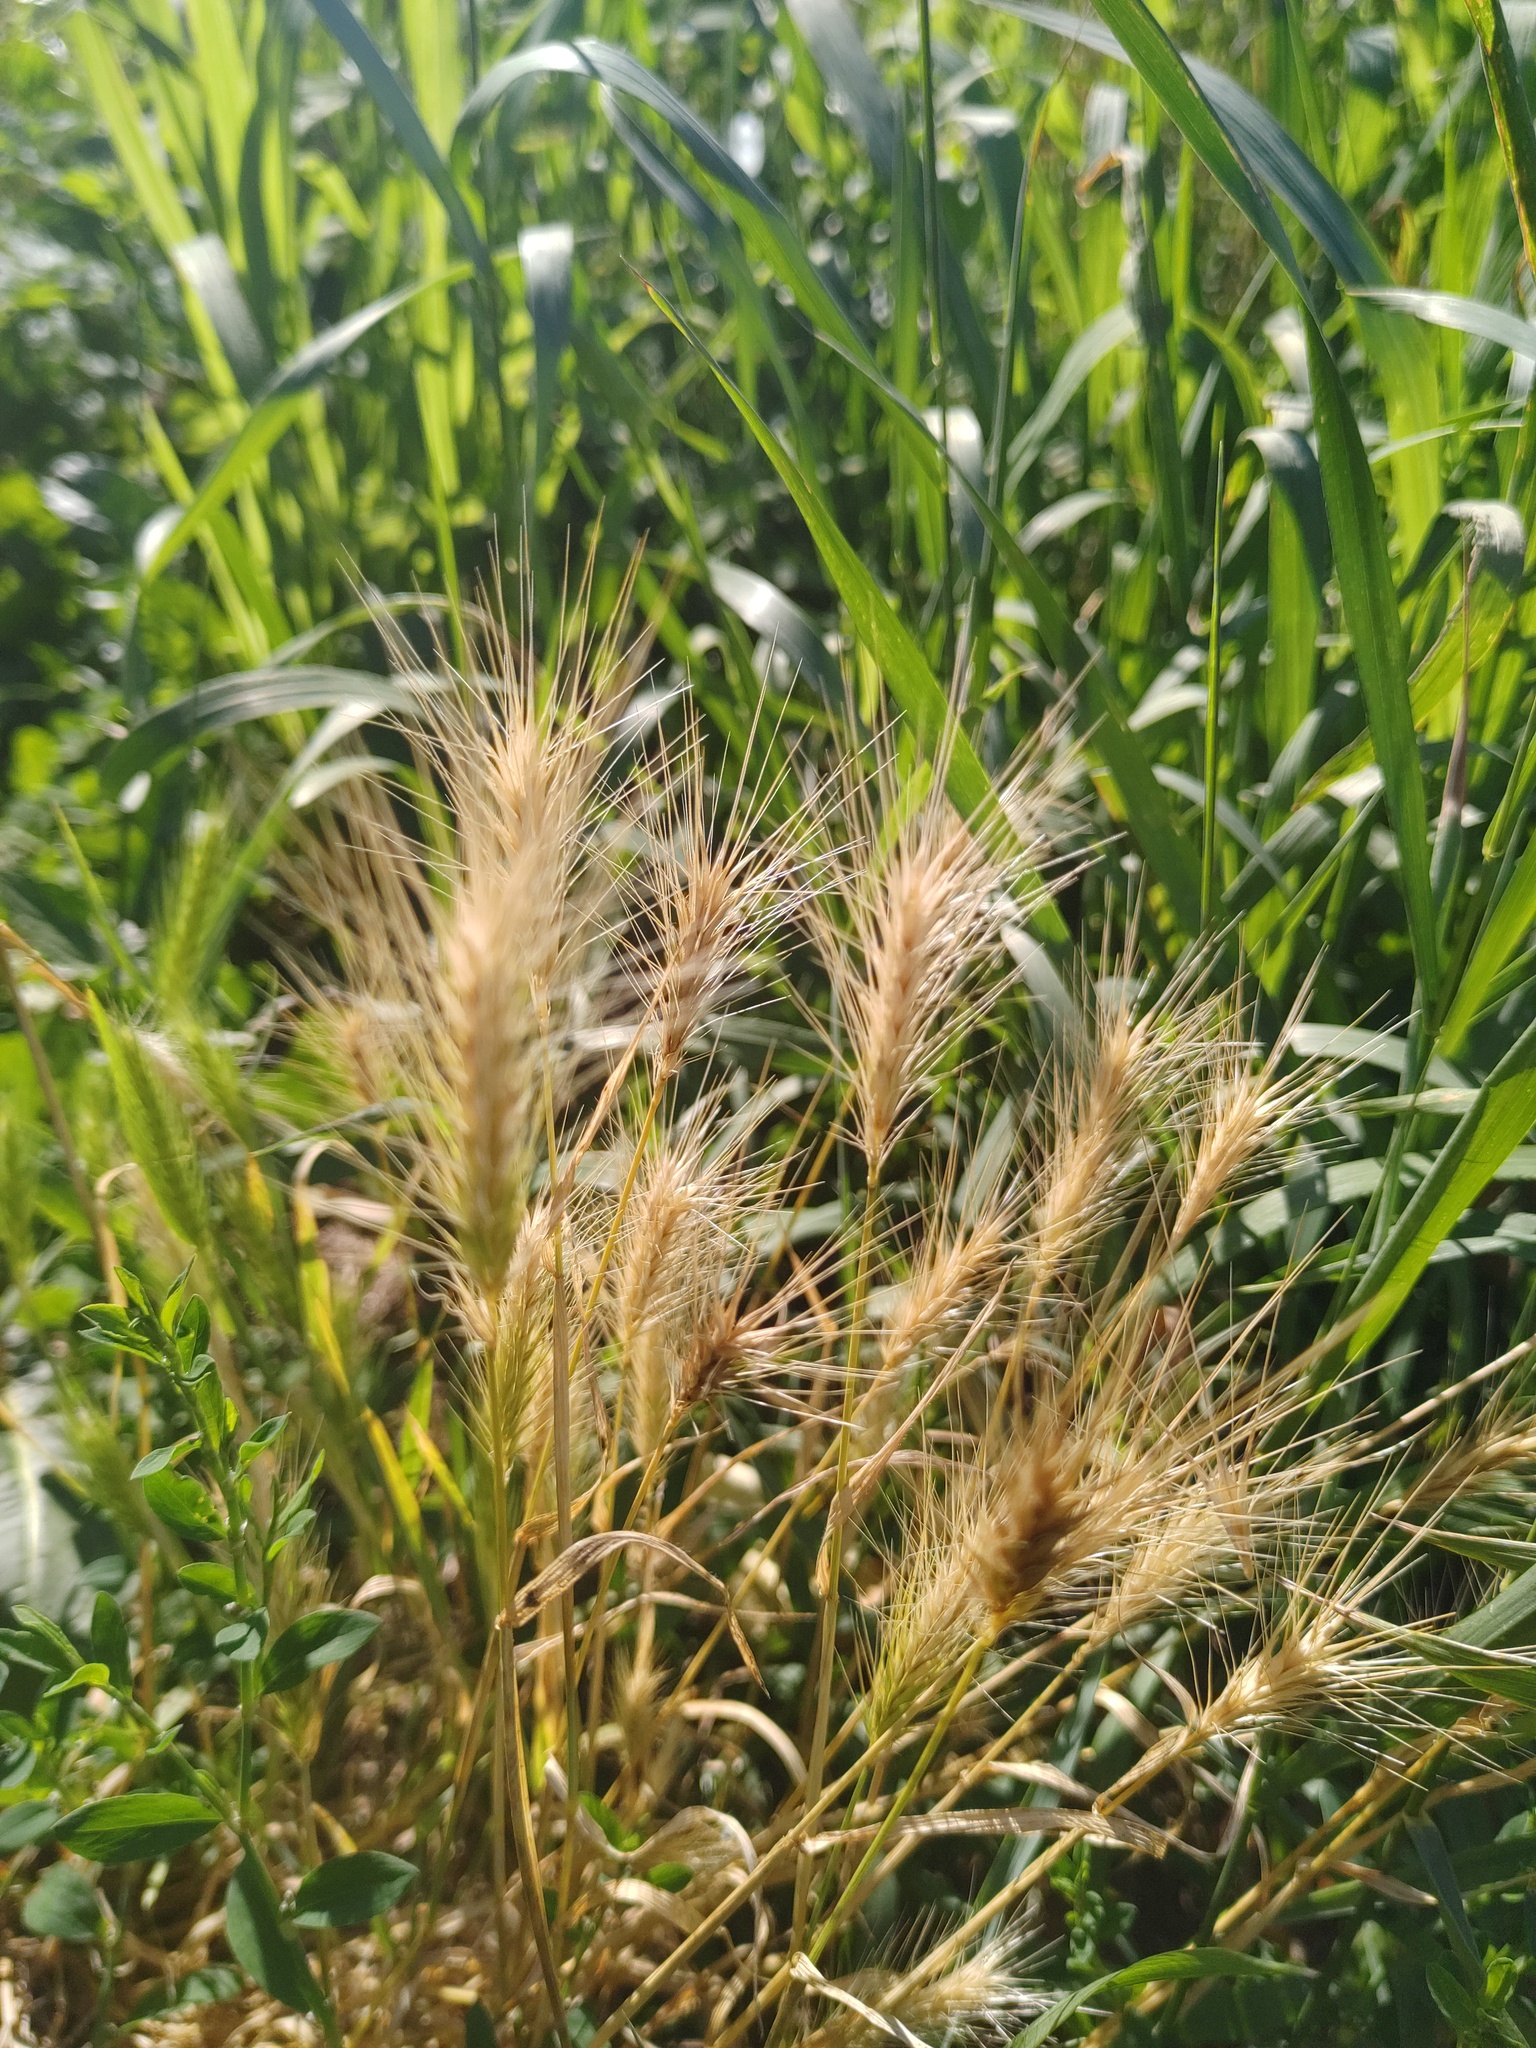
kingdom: Plantae
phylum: Tracheophyta
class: Liliopsida
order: Poales
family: Poaceae
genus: Hordeum
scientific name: Hordeum murinum
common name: Wall barley
